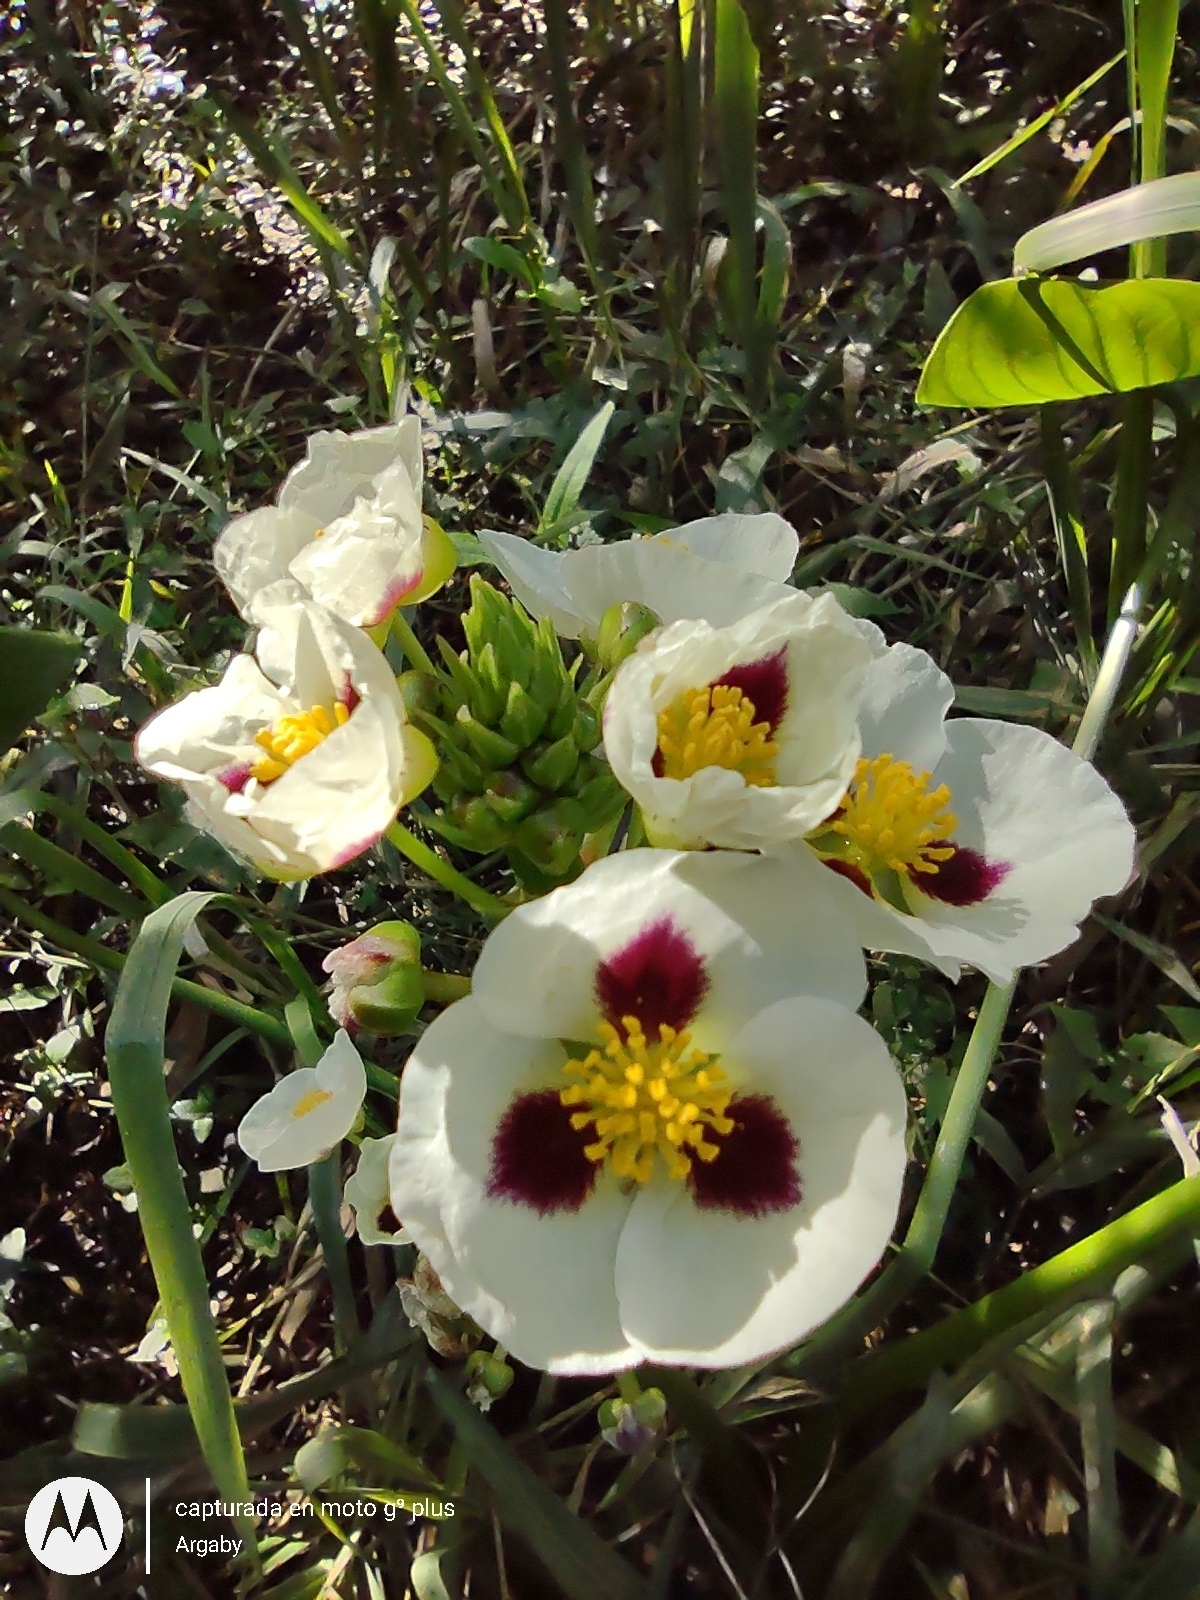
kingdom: Plantae
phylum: Tracheophyta
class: Liliopsida
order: Alismatales
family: Alismataceae
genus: Sagittaria
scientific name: Sagittaria montevidensis
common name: Giant arrowhead
